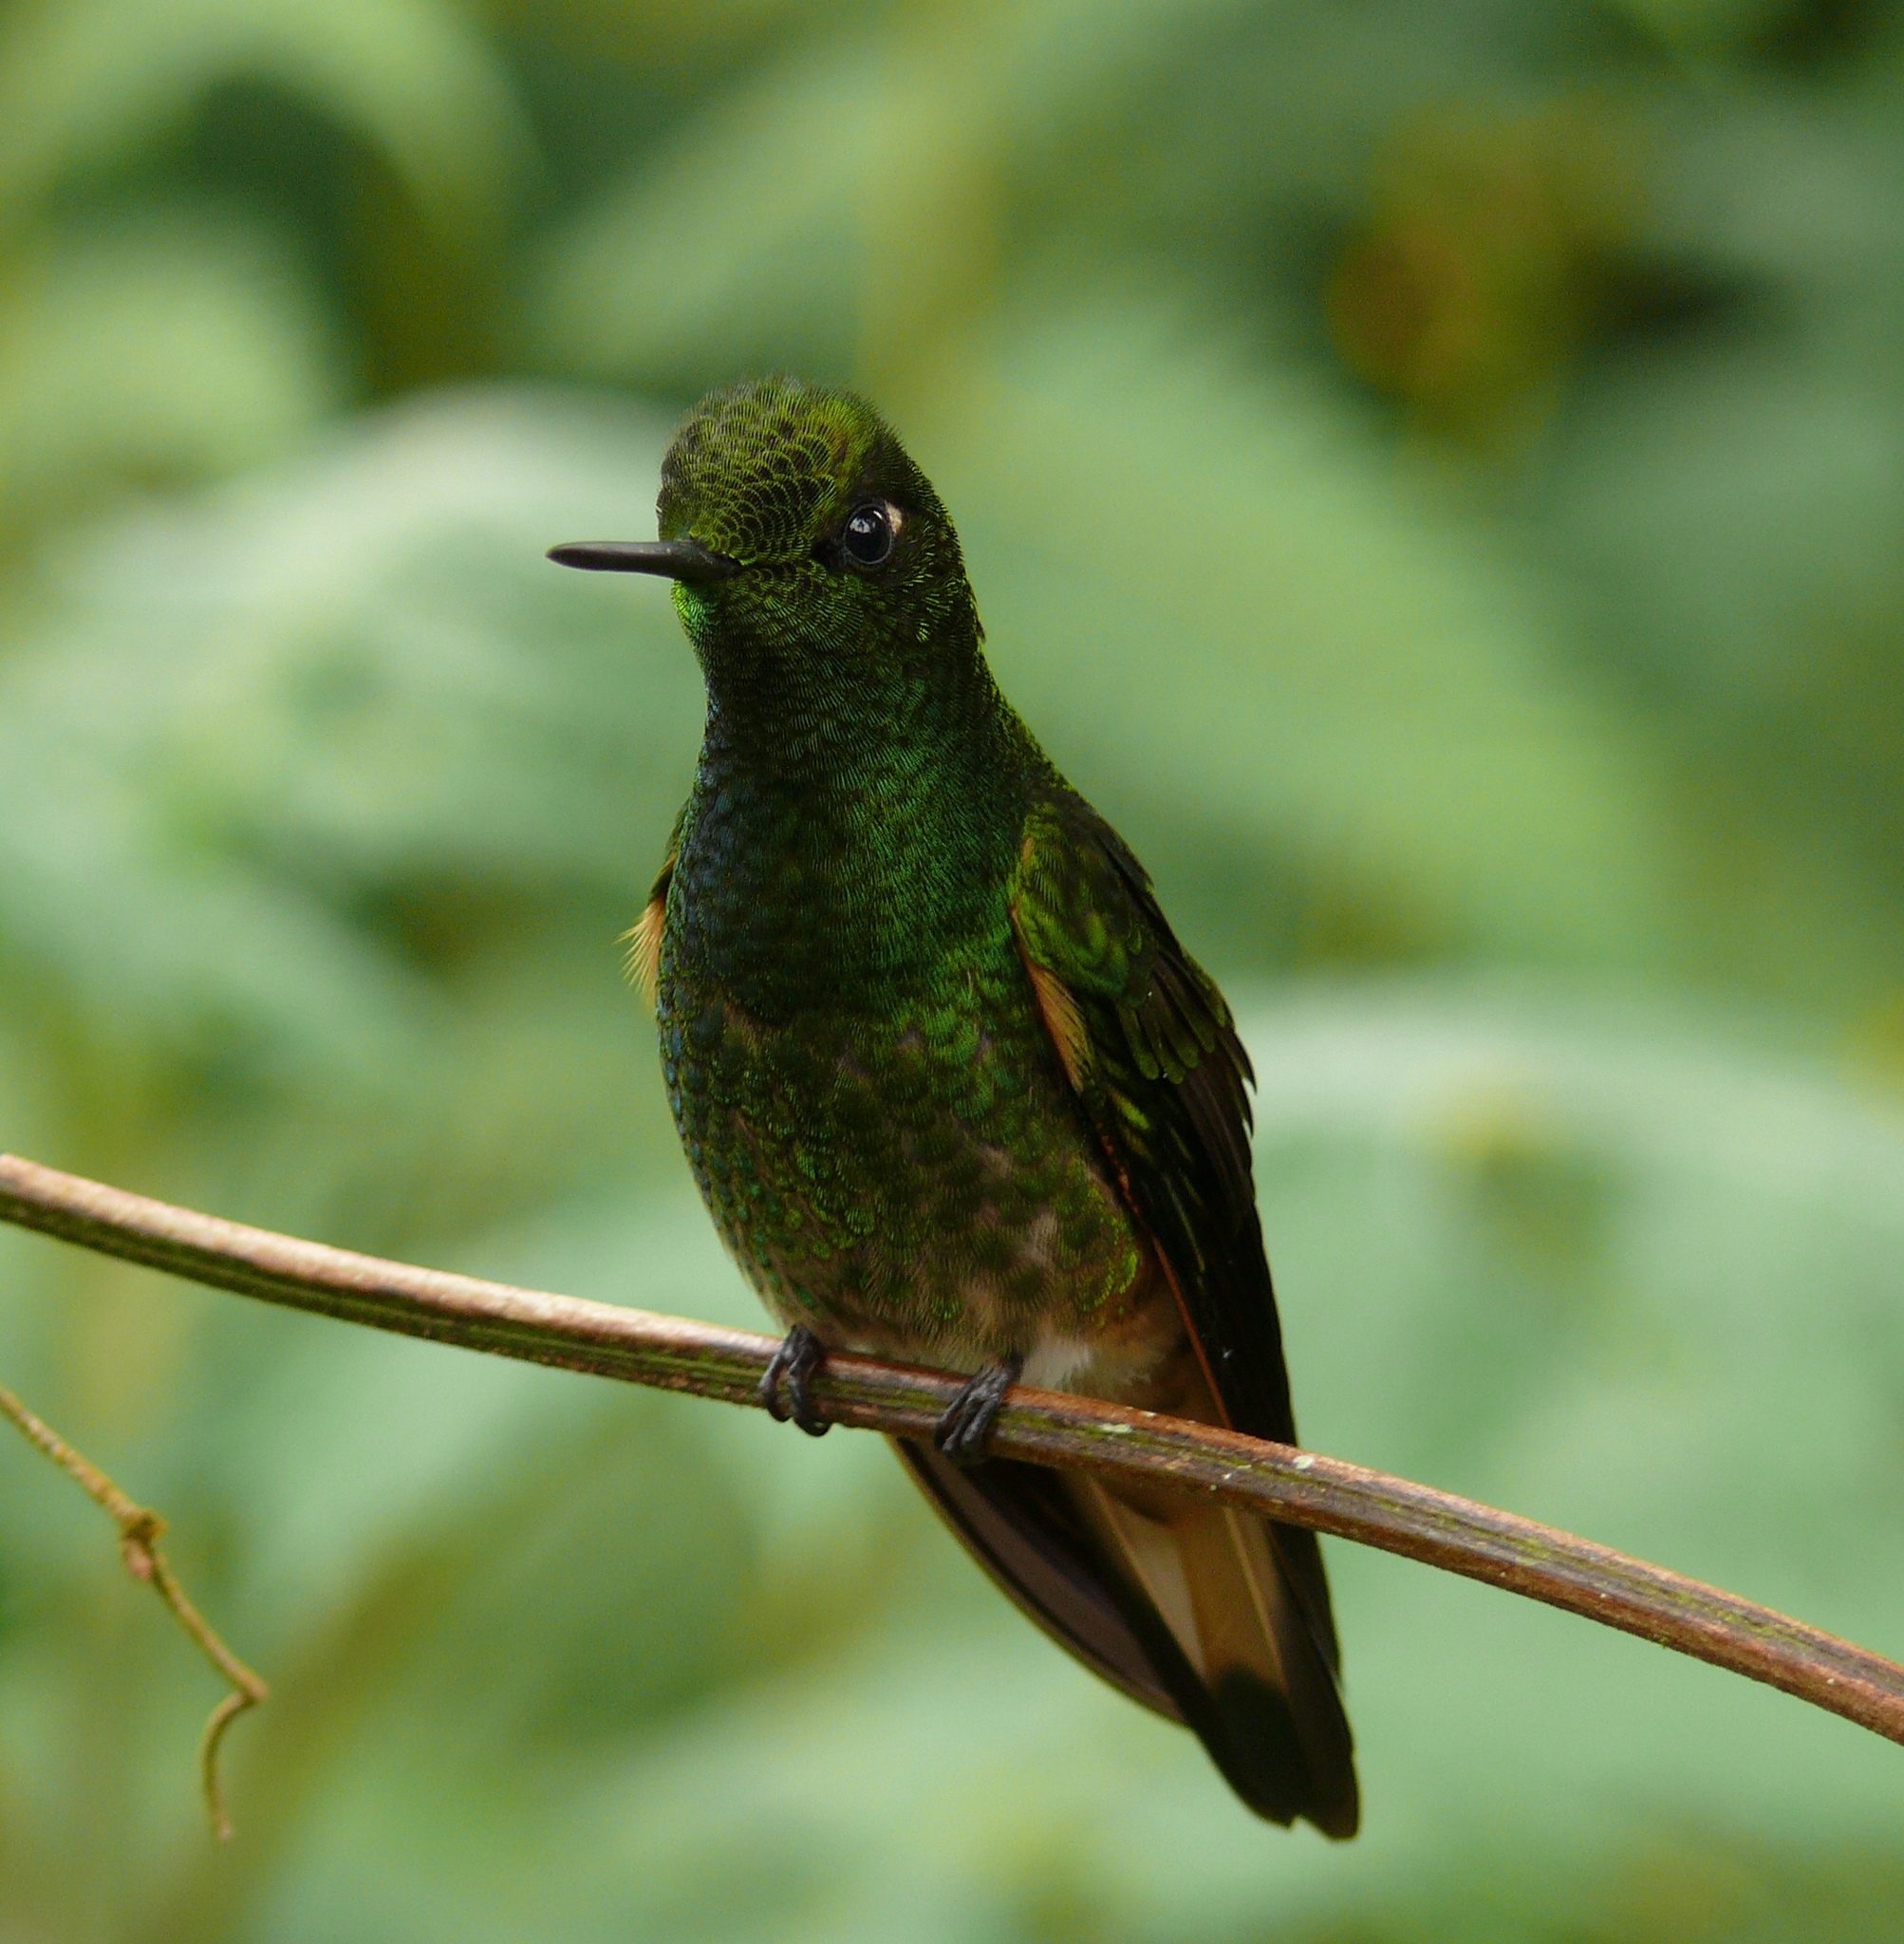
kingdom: Animalia
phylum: Chordata
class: Aves
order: Apodiformes
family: Trochilidae
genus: Boissonneaua
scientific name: Boissonneaua flavescens
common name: Buff-tailed coronet
